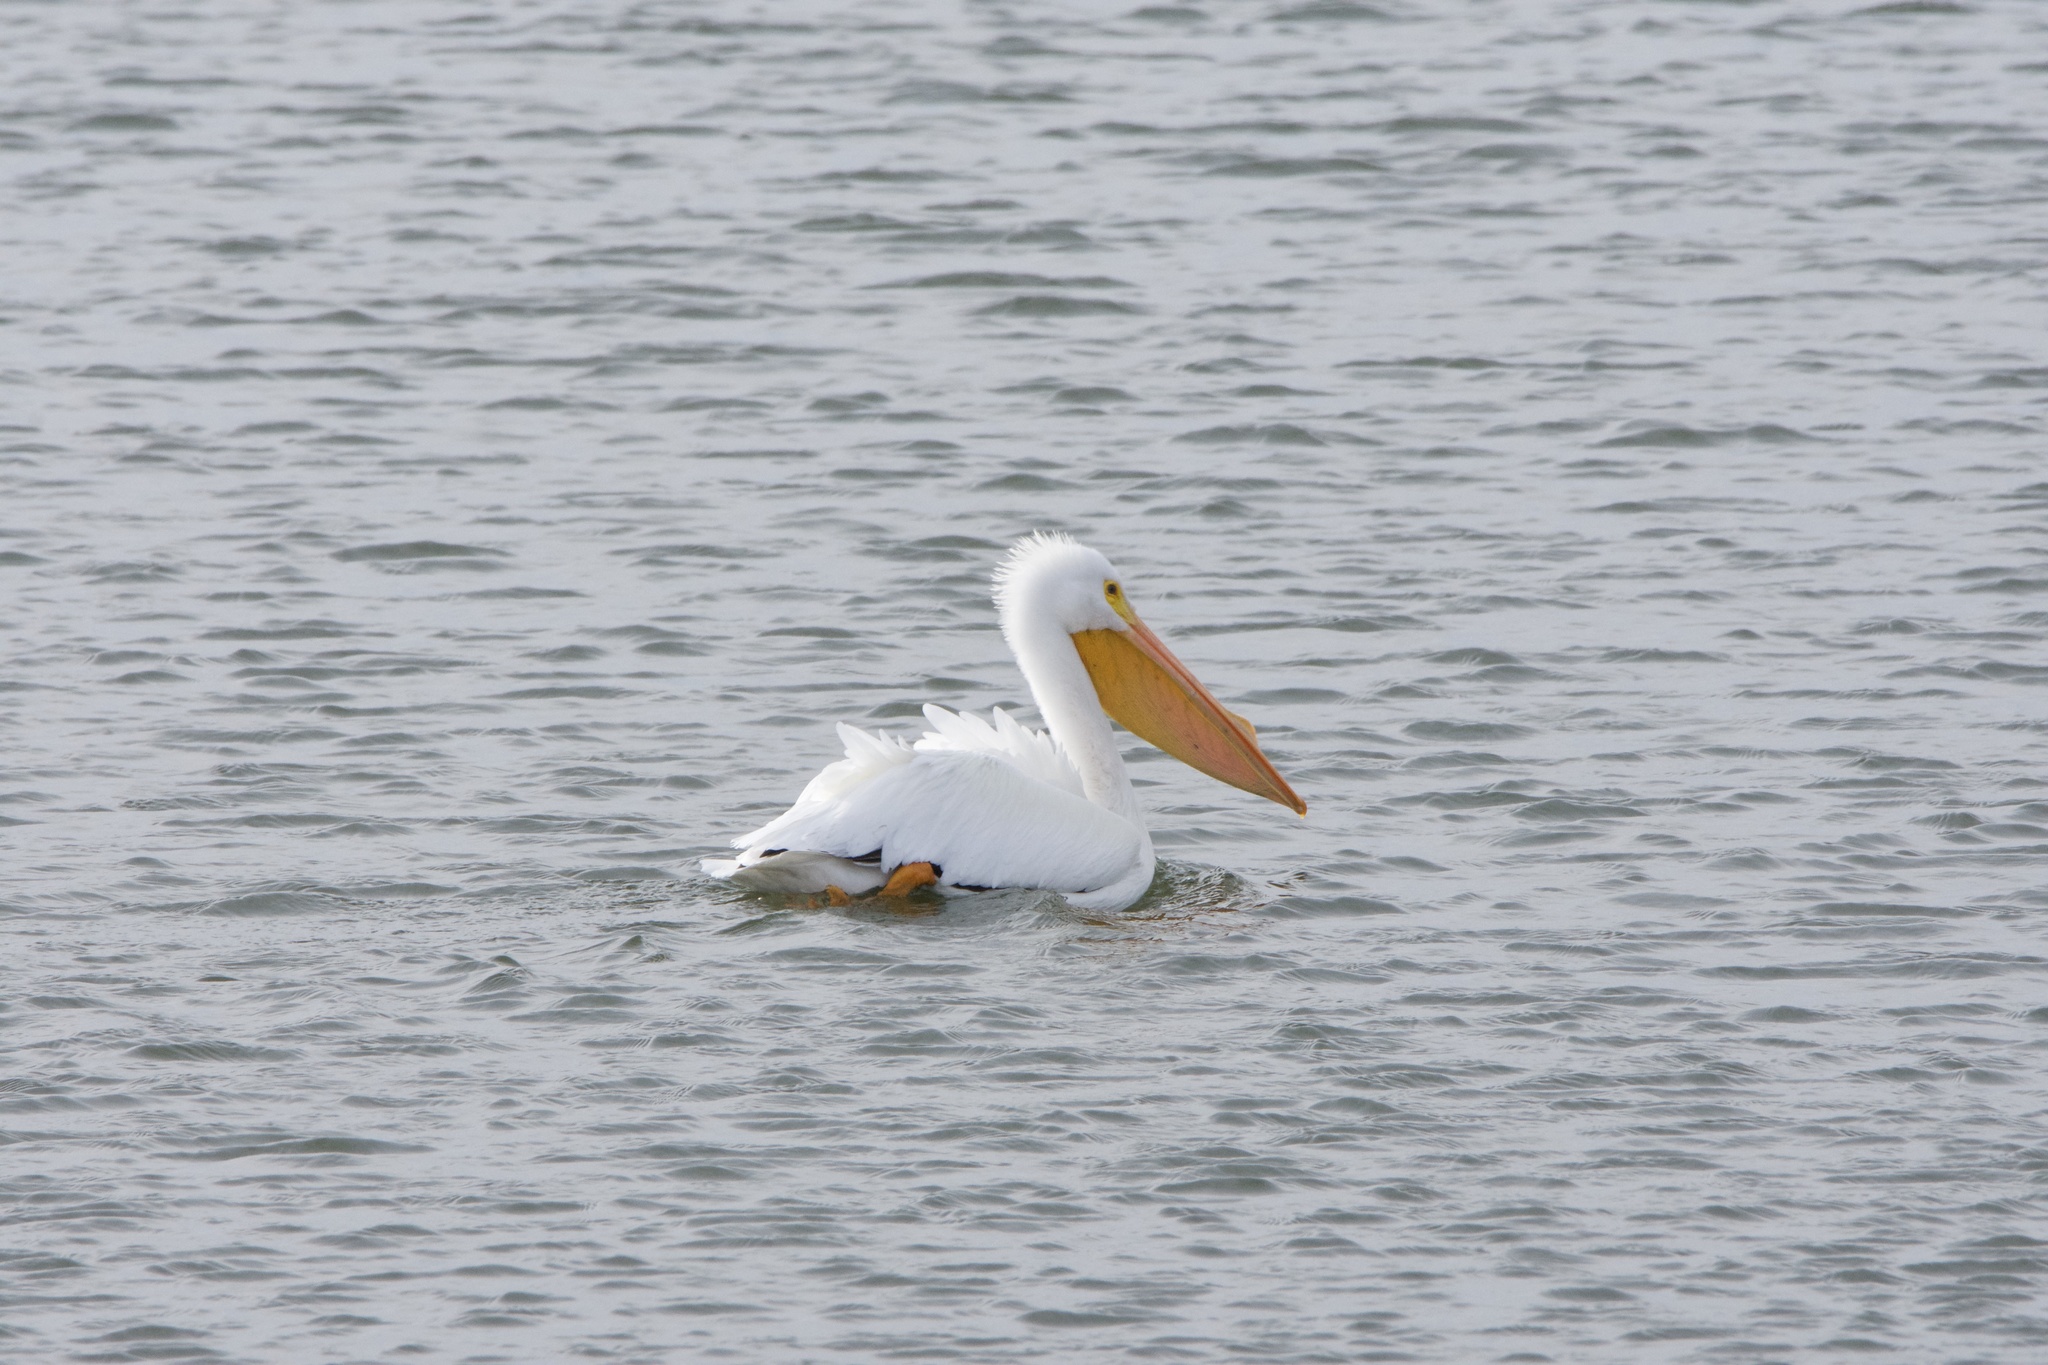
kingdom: Animalia
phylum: Chordata
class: Aves
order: Pelecaniformes
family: Pelecanidae
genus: Pelecanus
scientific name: Pelecanus erythrorhynchos
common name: American white pelican
